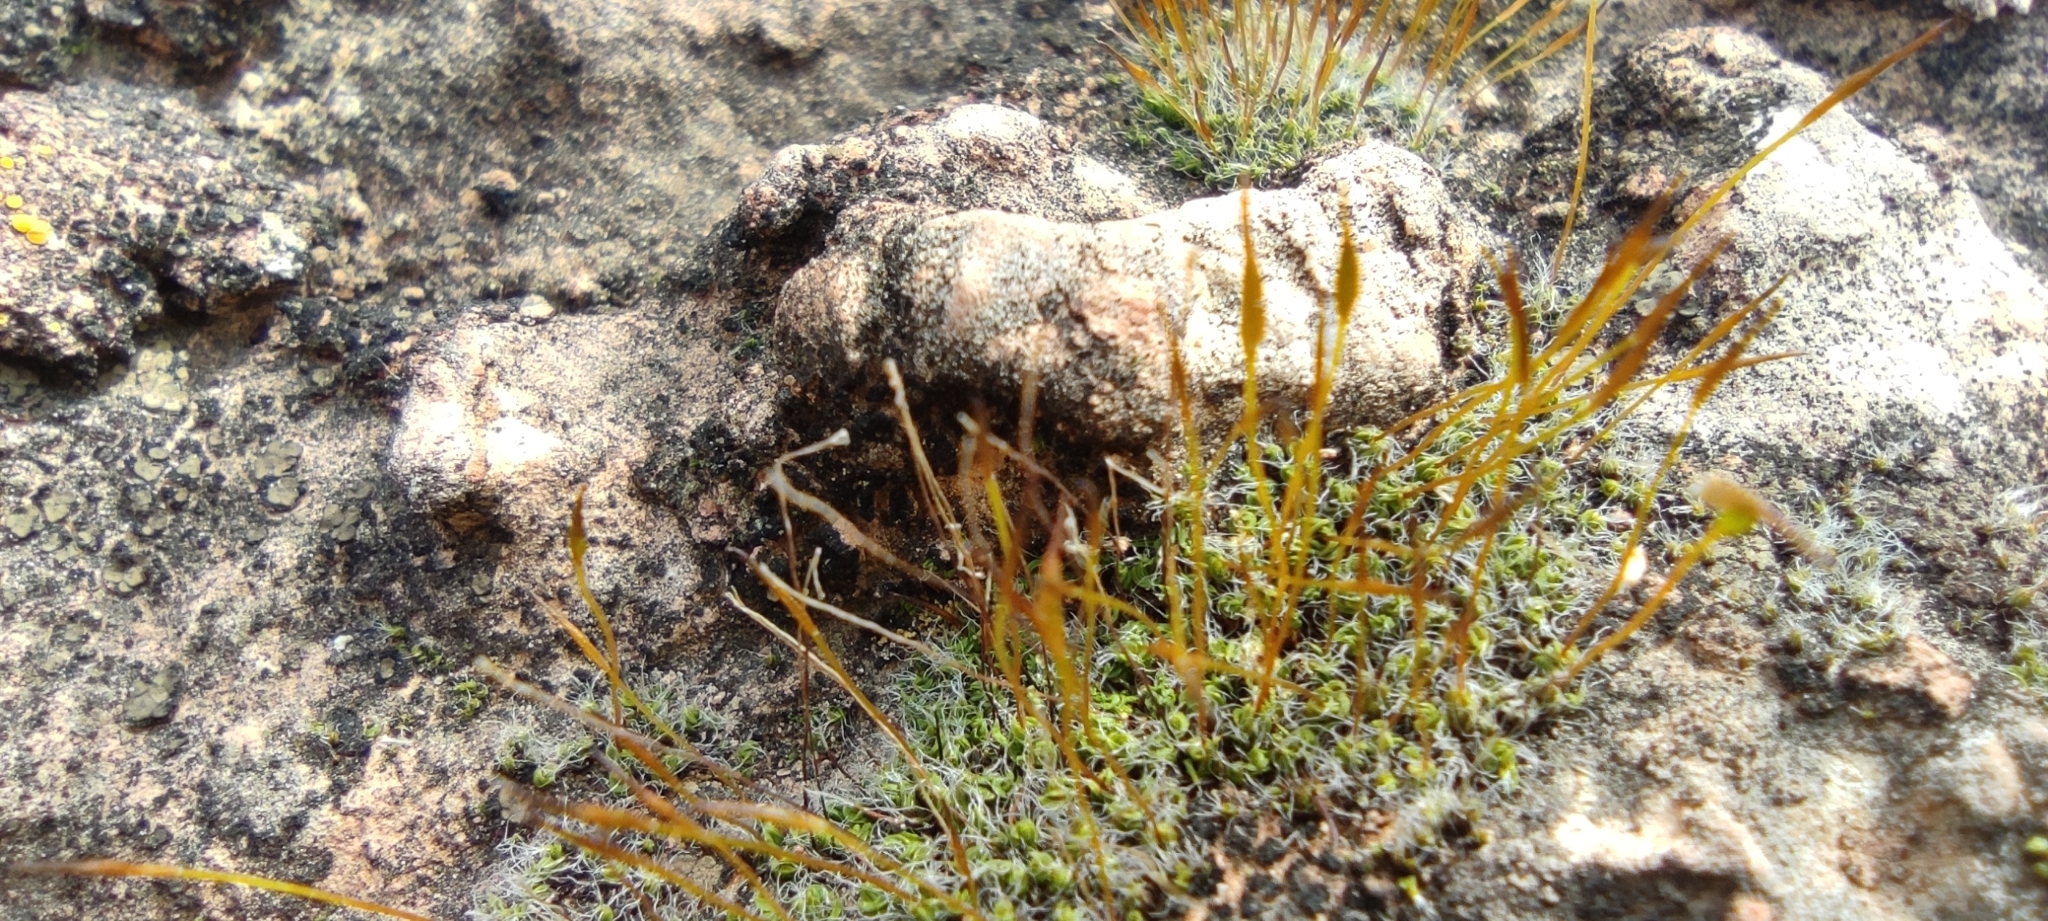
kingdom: Plantae
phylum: Bryophyta
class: Bryopsida
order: Pottiales
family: Pottiaceae
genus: Tortula
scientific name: Tortula muralis
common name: Wall screw-moss
